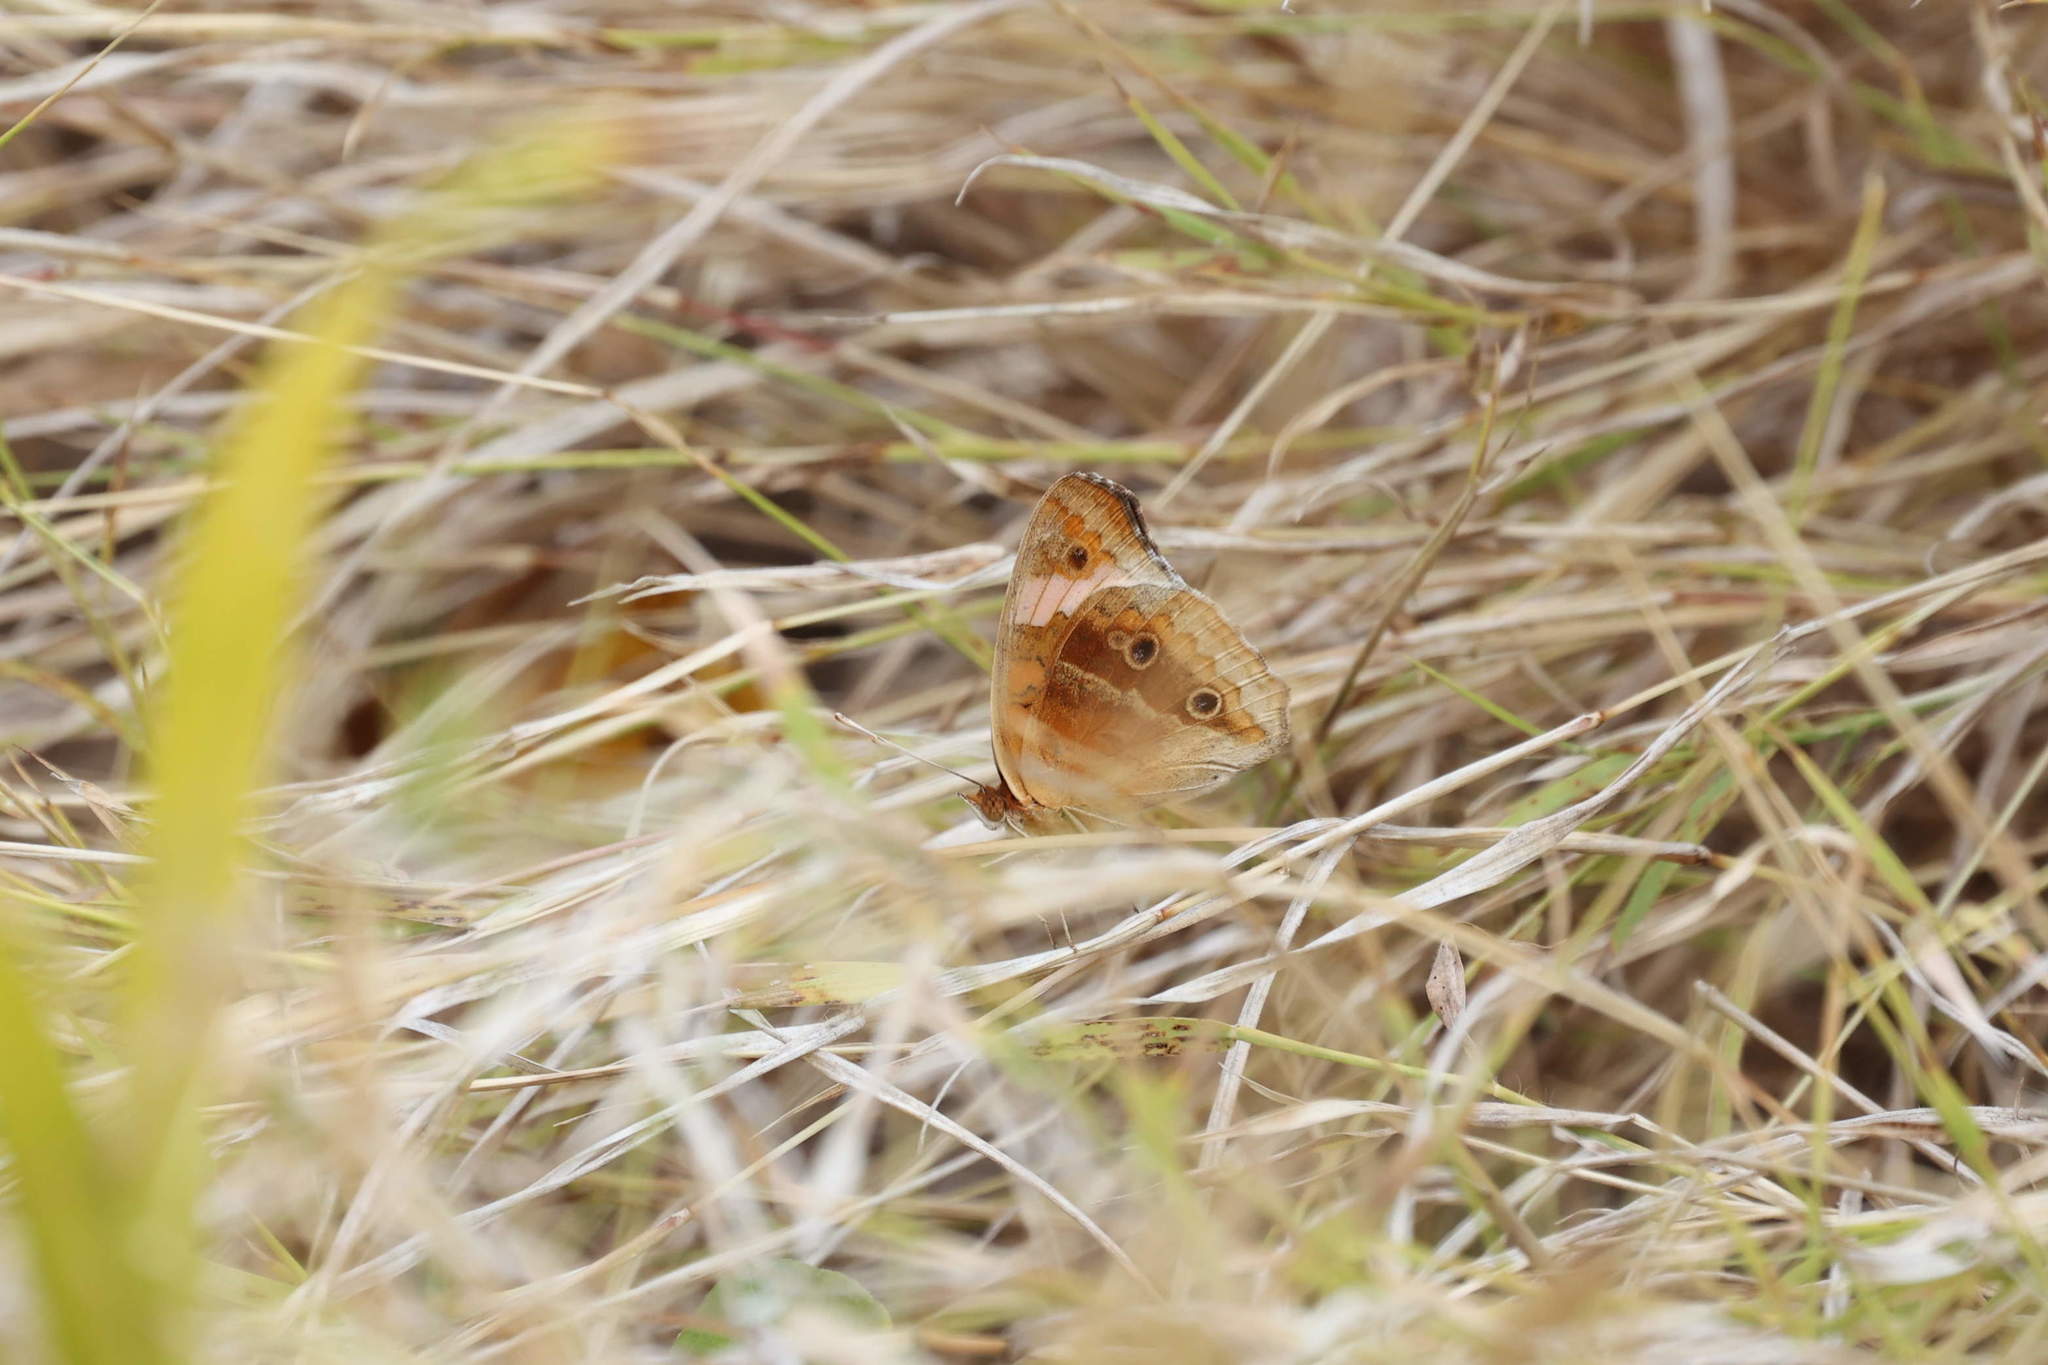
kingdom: Animalia
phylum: Arthropoda
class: Insecta
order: Lepidoptera
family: Nymphalidae
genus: Junonia
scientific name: Junonia lavinia
